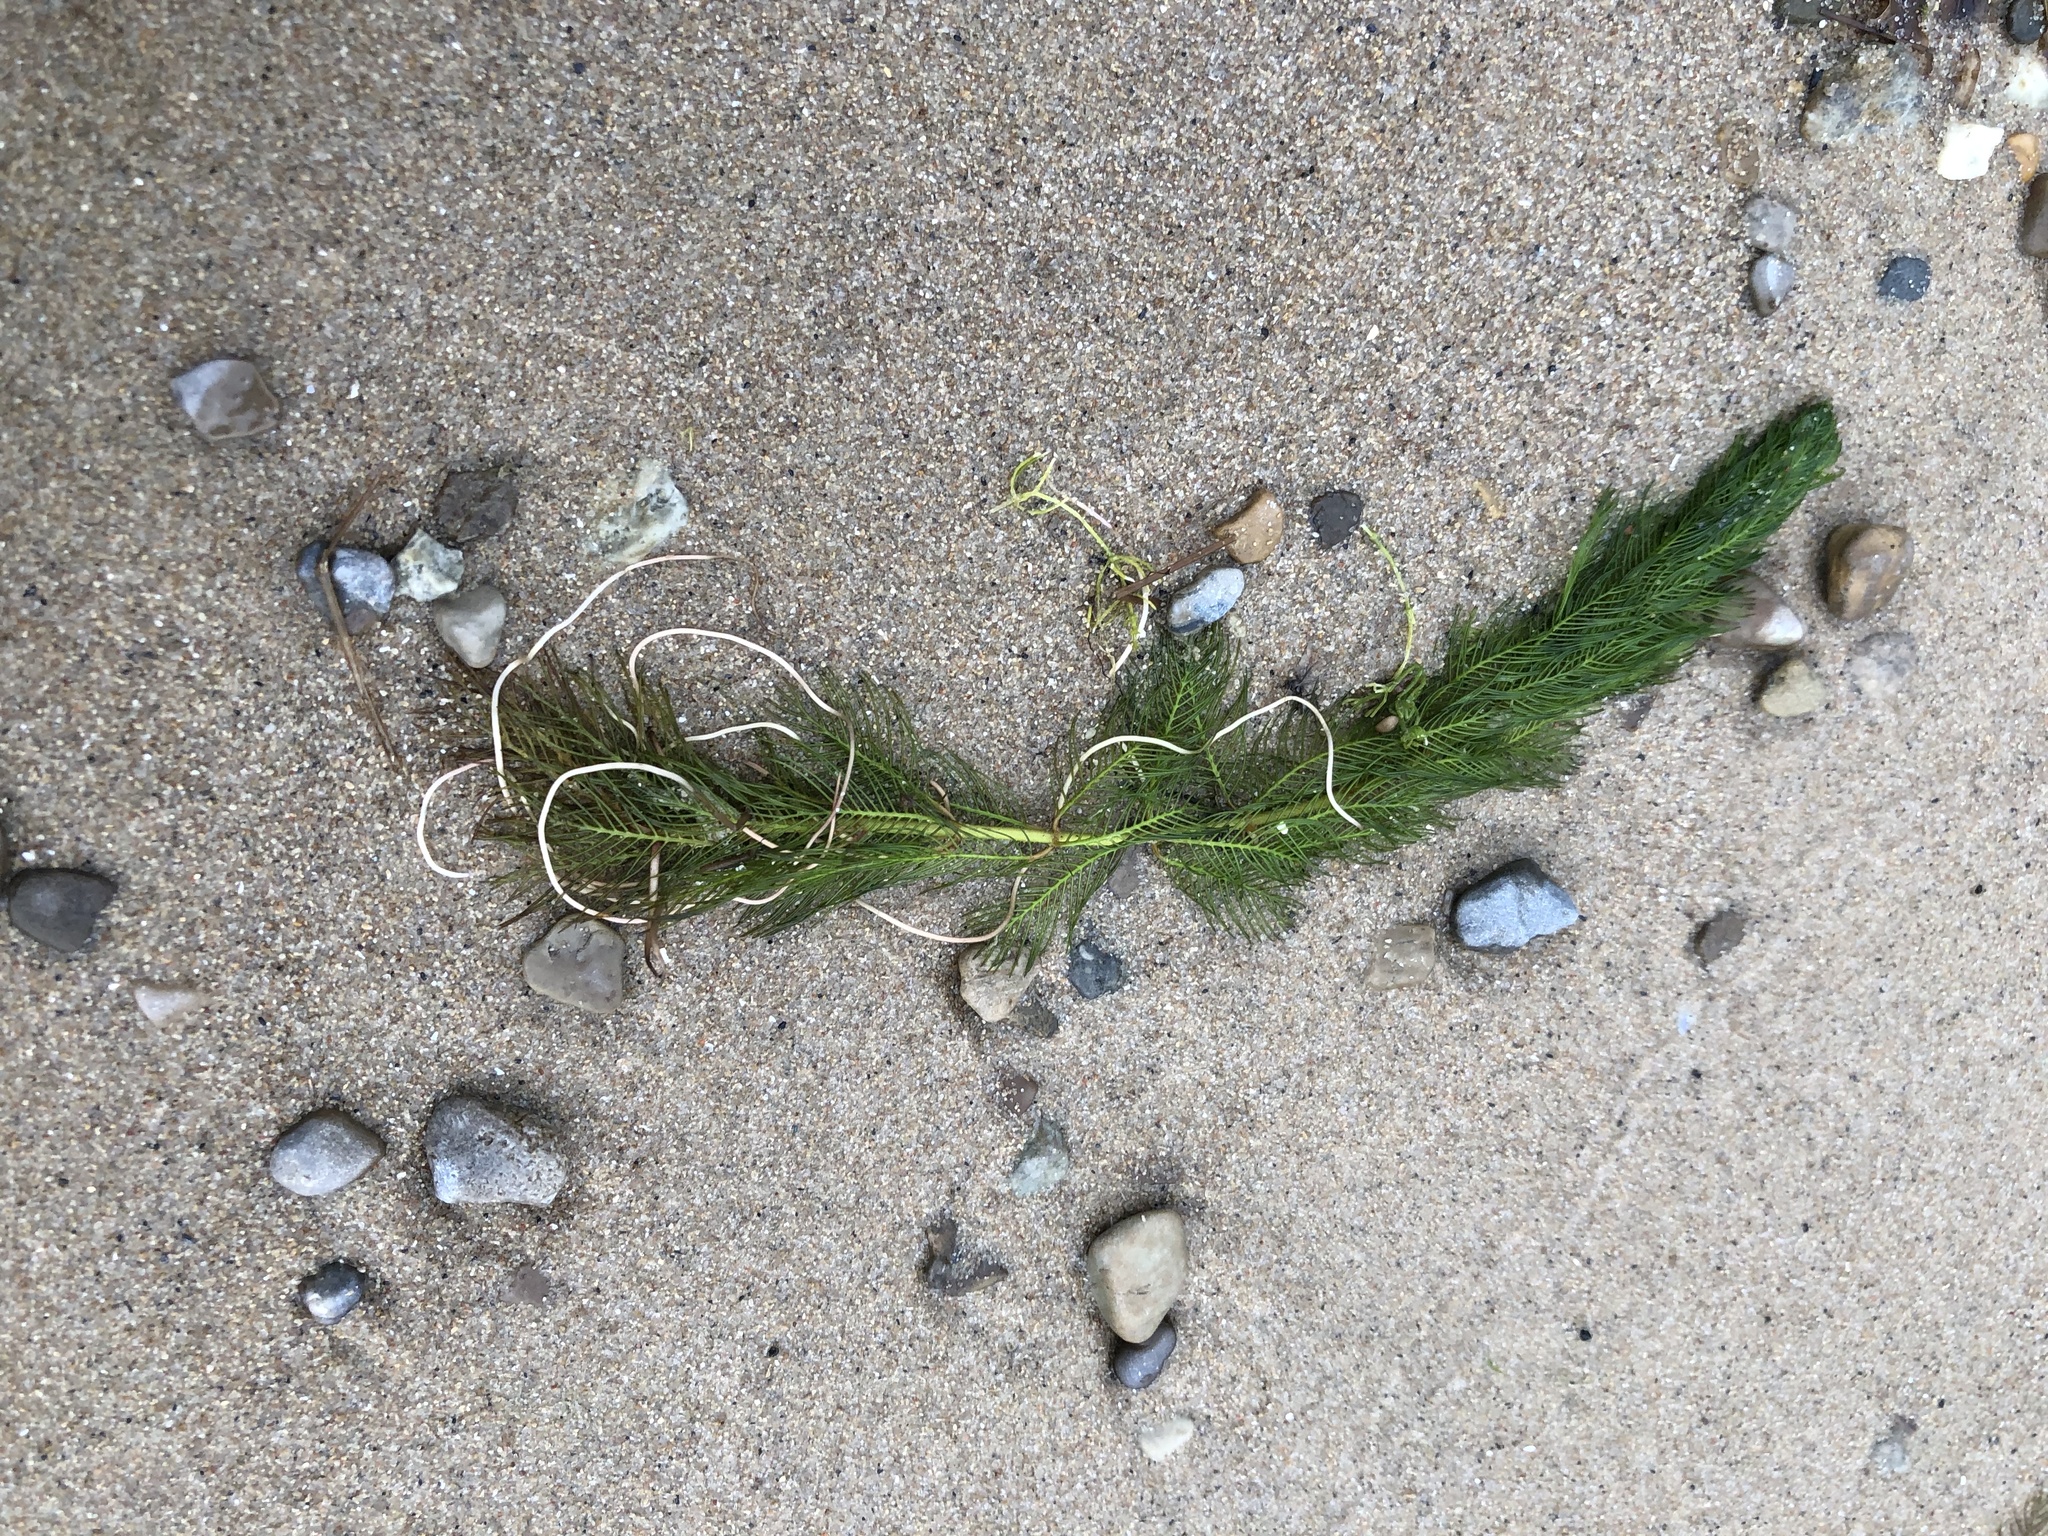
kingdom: Plantae
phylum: Tracheophyta
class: Magnoliopsida
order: Saxifragales
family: Haloragaceae
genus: Myriophyllum
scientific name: Myriophyllum spicatum
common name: Spiked water-milfoil
